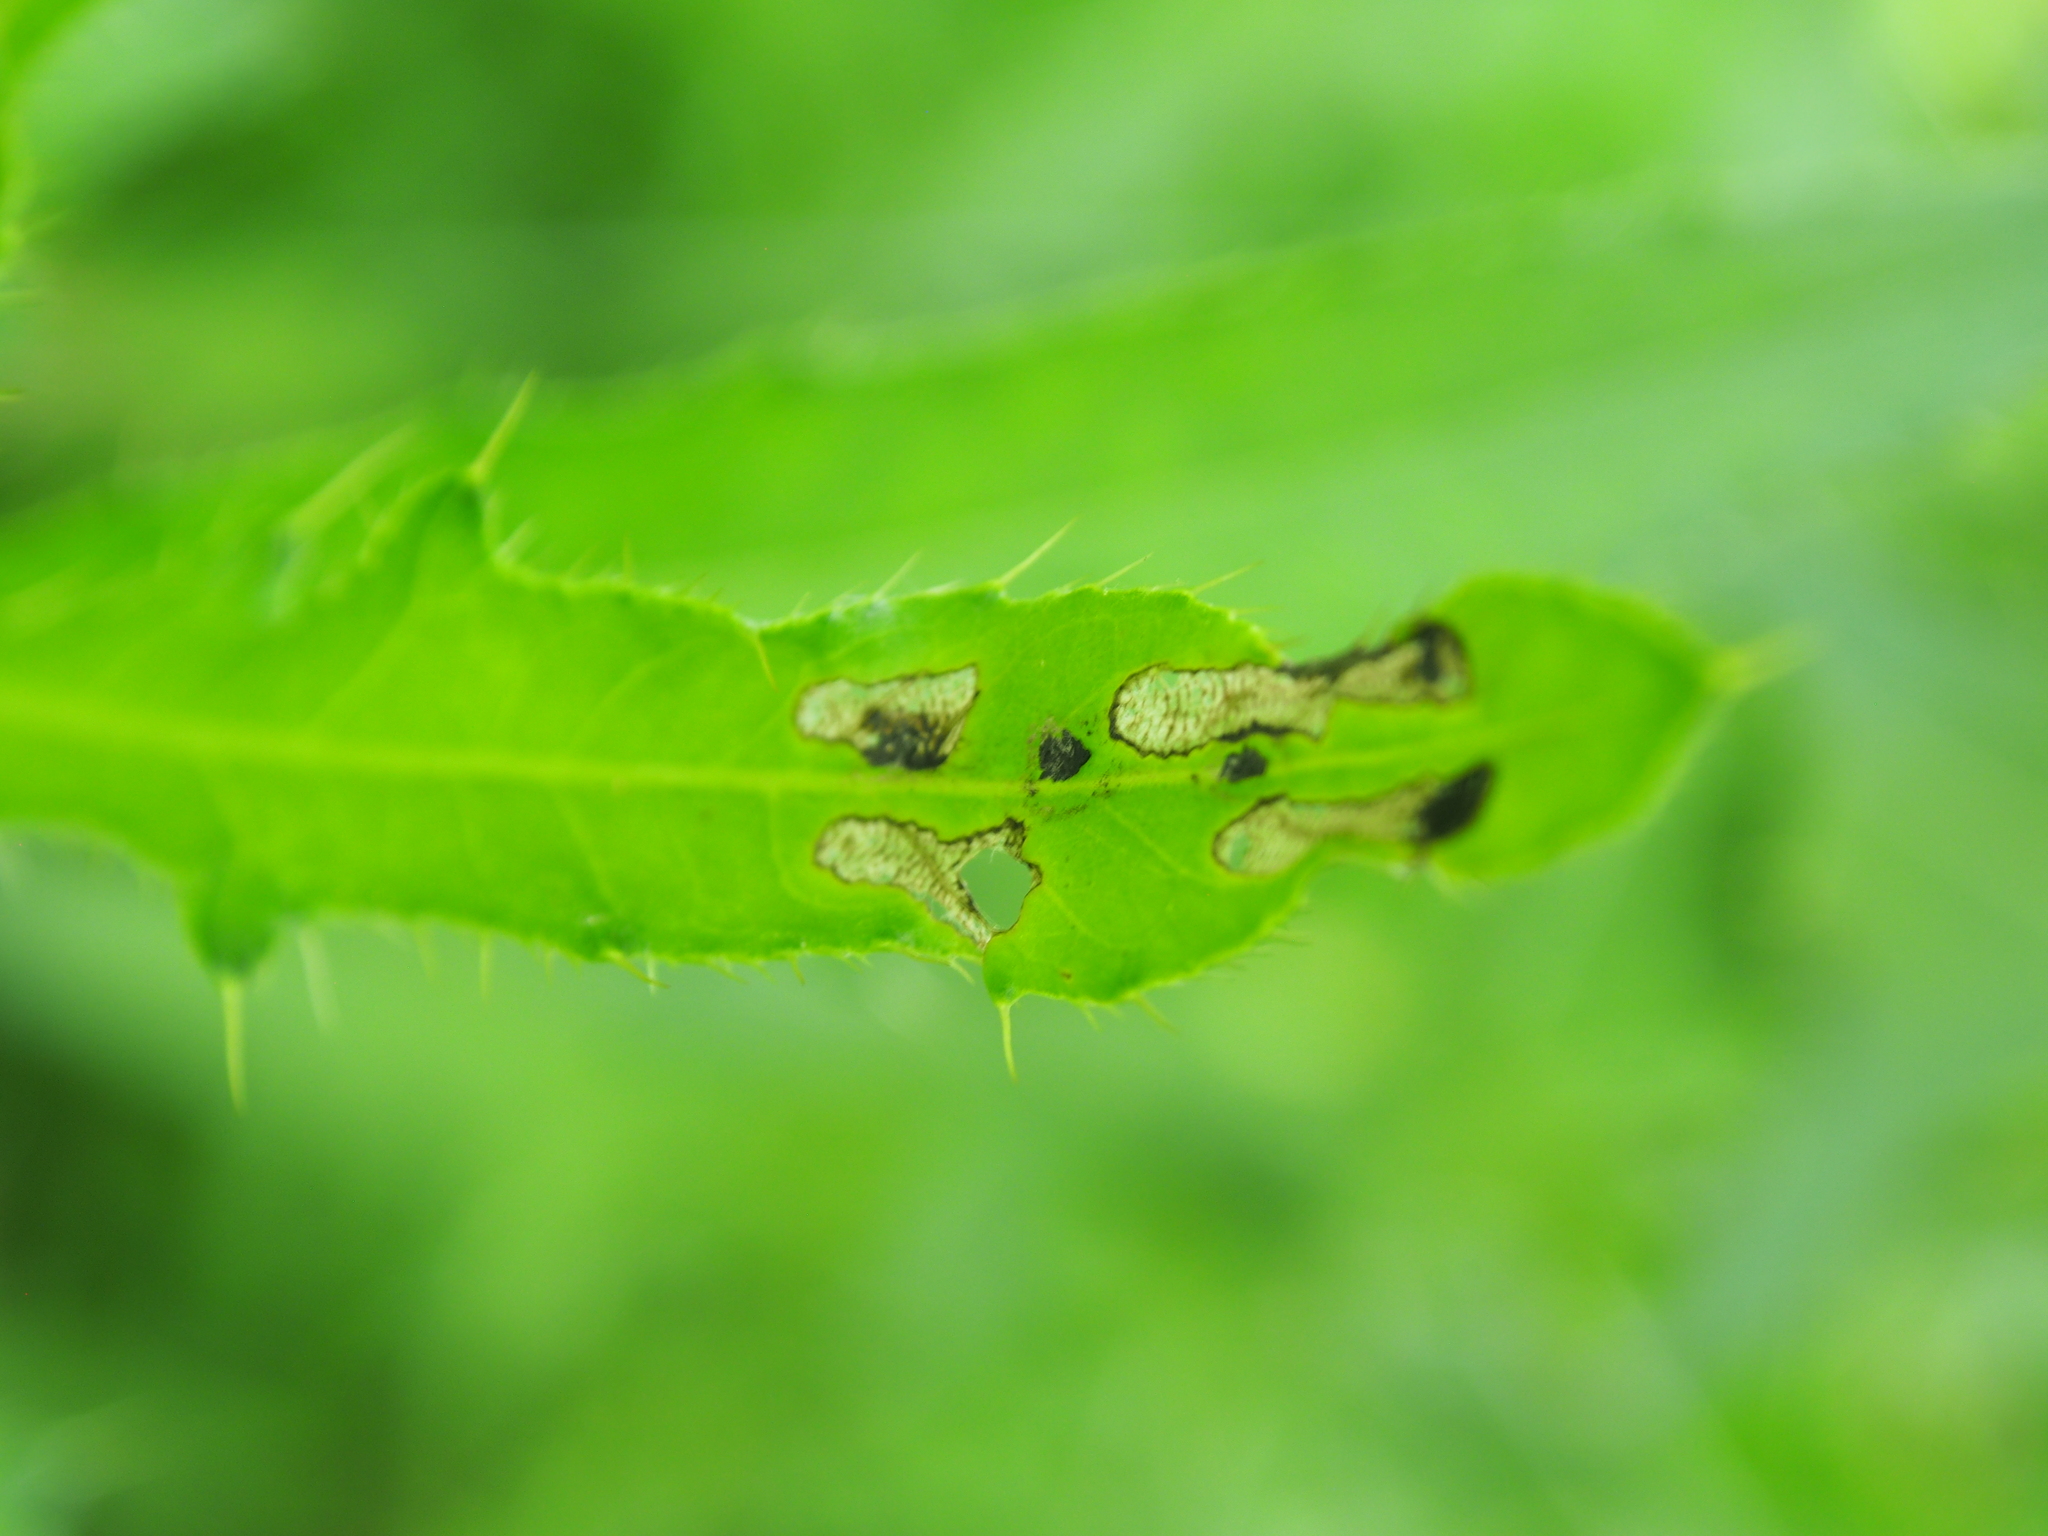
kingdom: Animalia
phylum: Arthropoda
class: Insecta
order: Coleoptera
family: Chrysomelidae
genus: Cassida
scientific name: Cassida rubiginosa
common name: Thistle tortoise beetle
